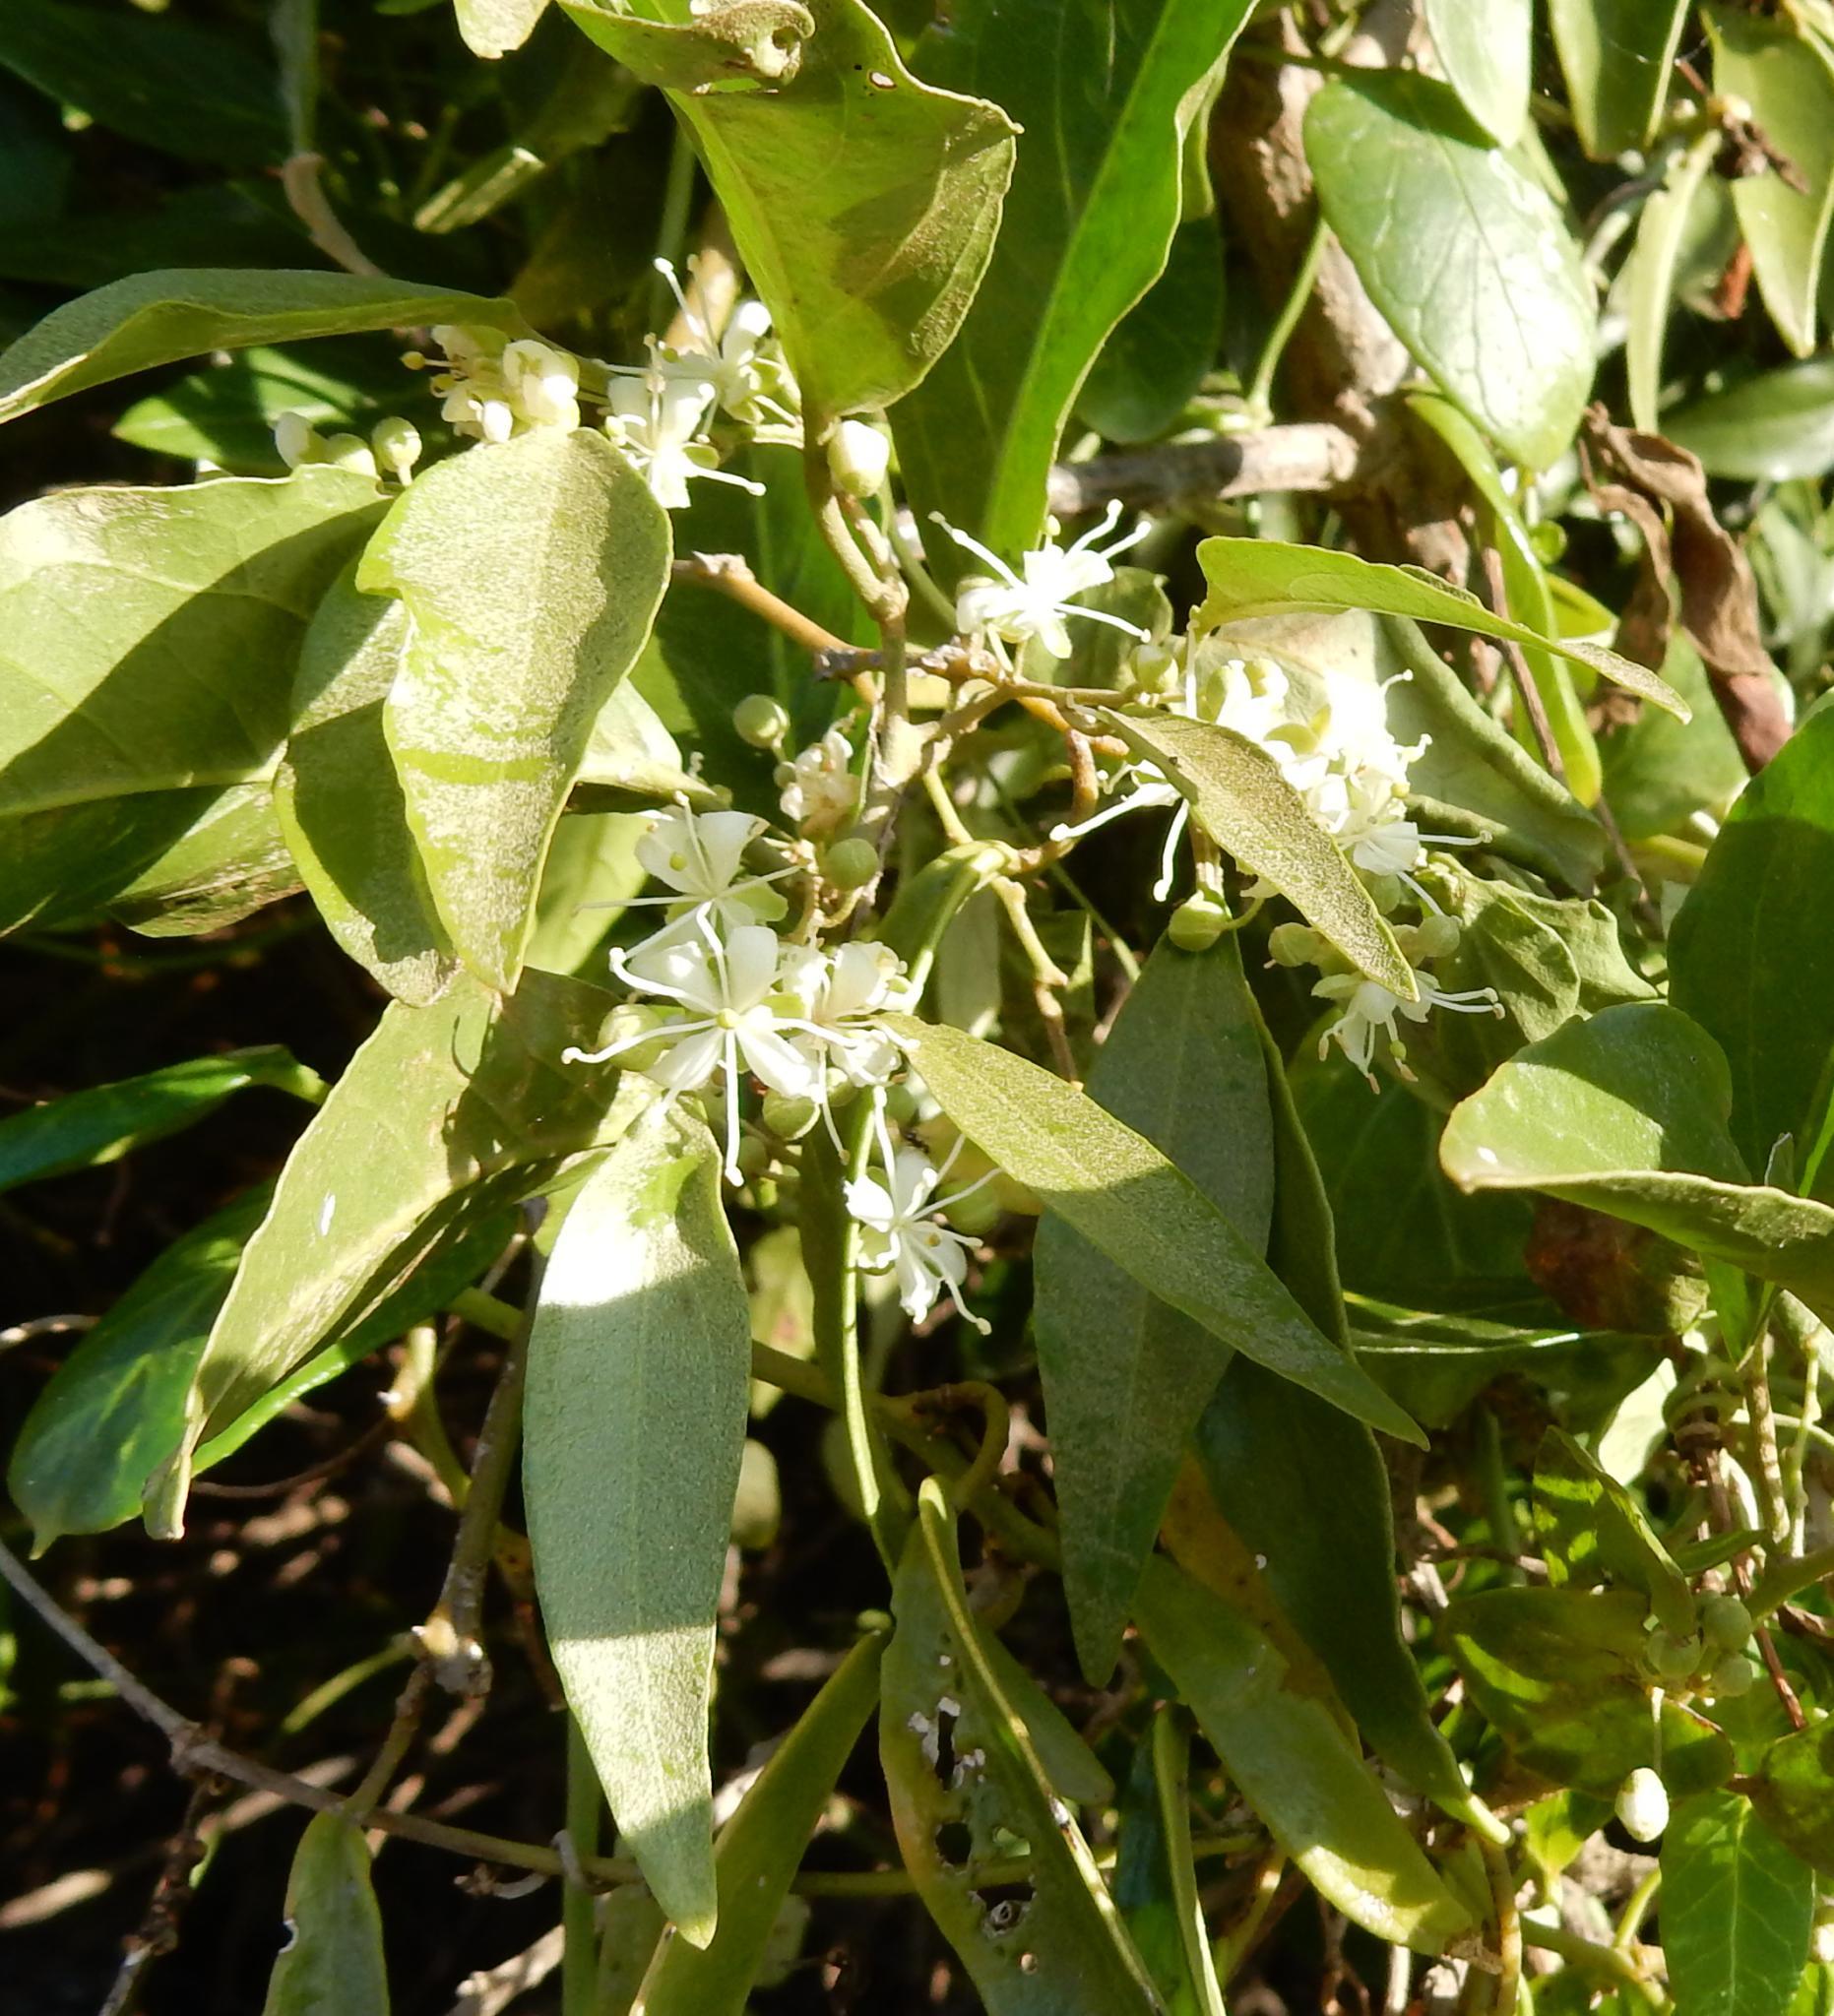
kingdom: Plantae
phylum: Tracheophyta
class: Magnoliopsida
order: Brassicales
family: Capparaceae
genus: Capparis
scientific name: Capparis fascicularis
